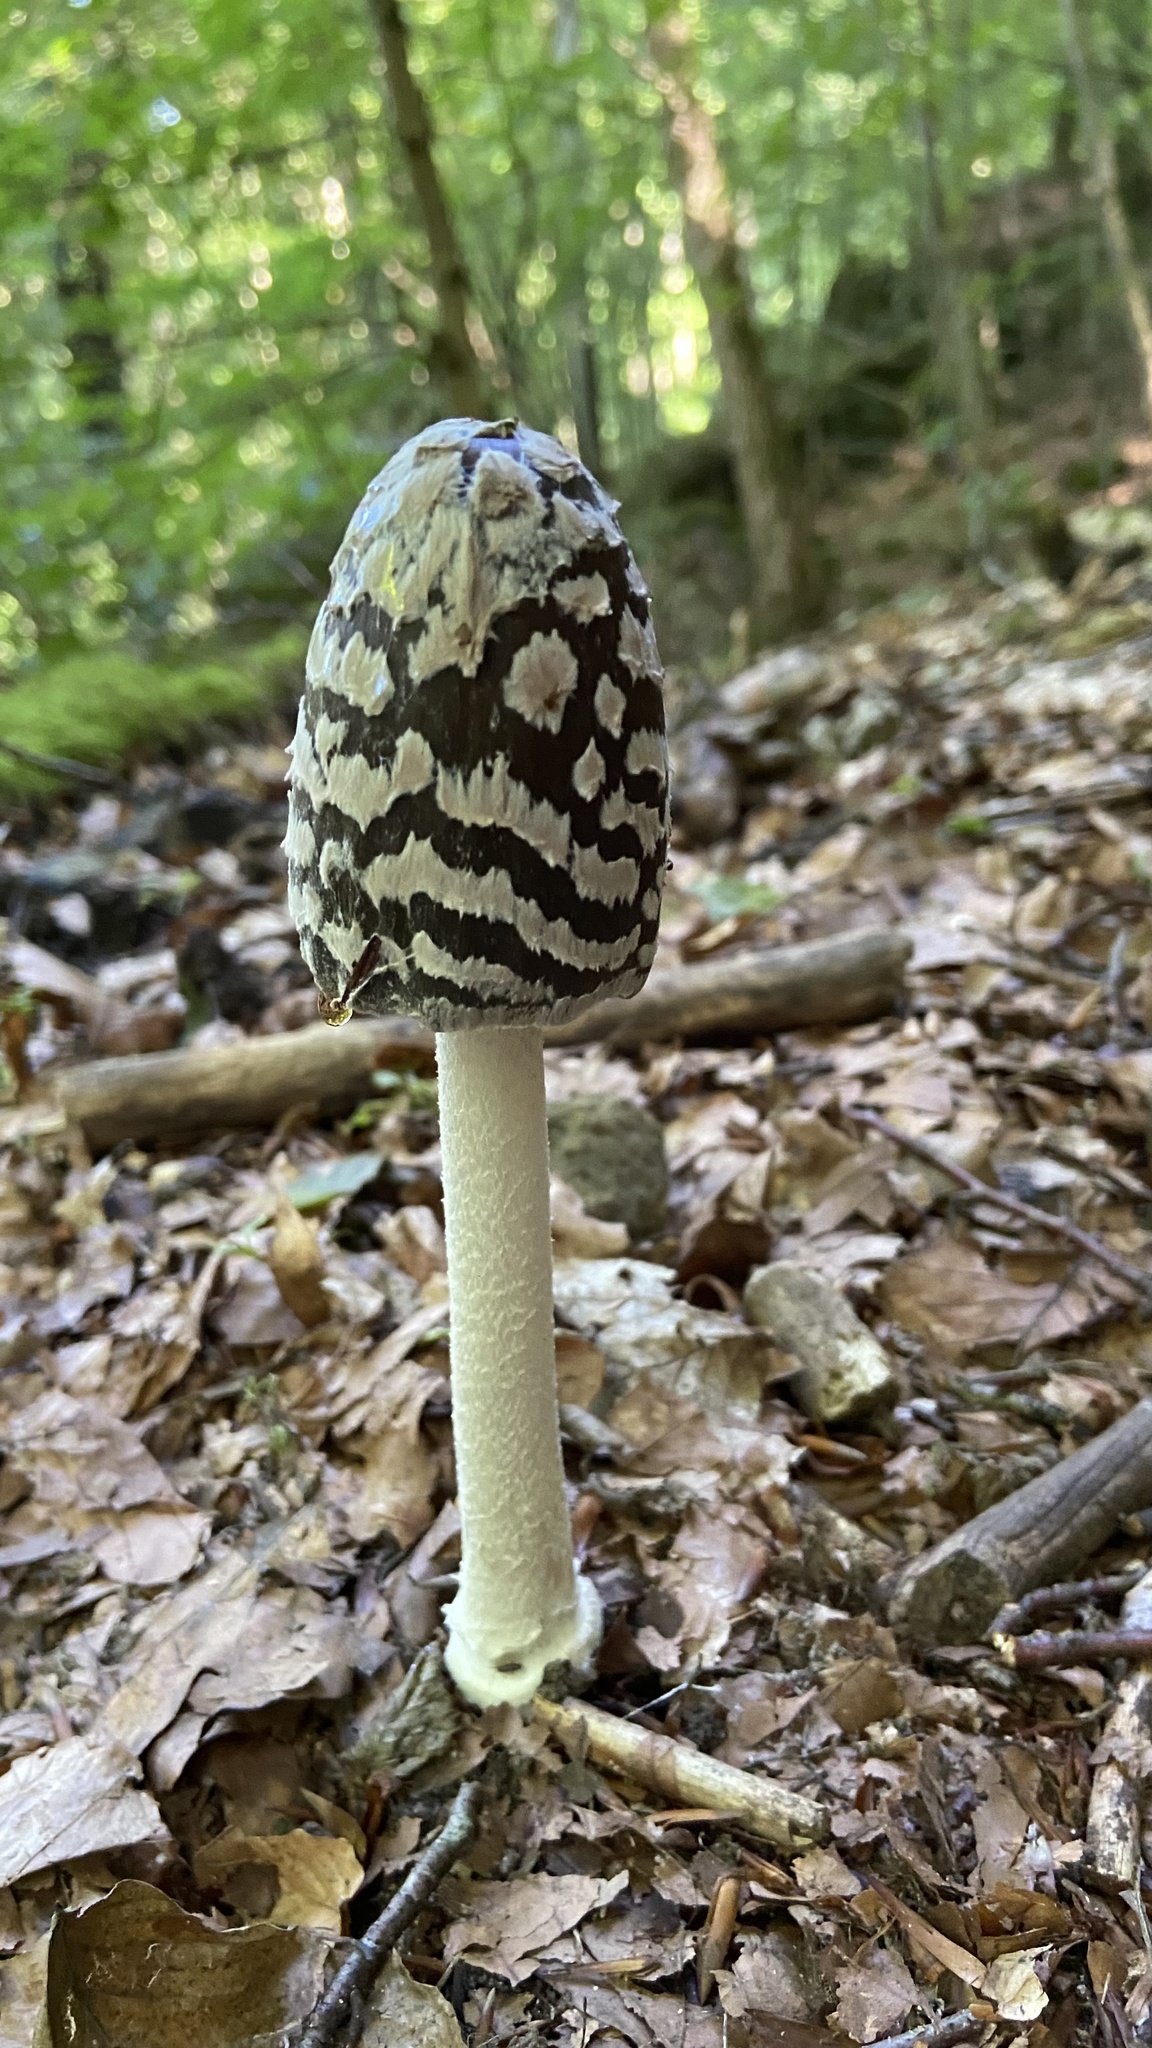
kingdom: Fungi
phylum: Basidiomycota
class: Agaricomycetes
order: Agaricales
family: Psathyrellaceae
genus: Coprinopsis
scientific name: Coprinopsis picacea
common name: Magpie inkcap
